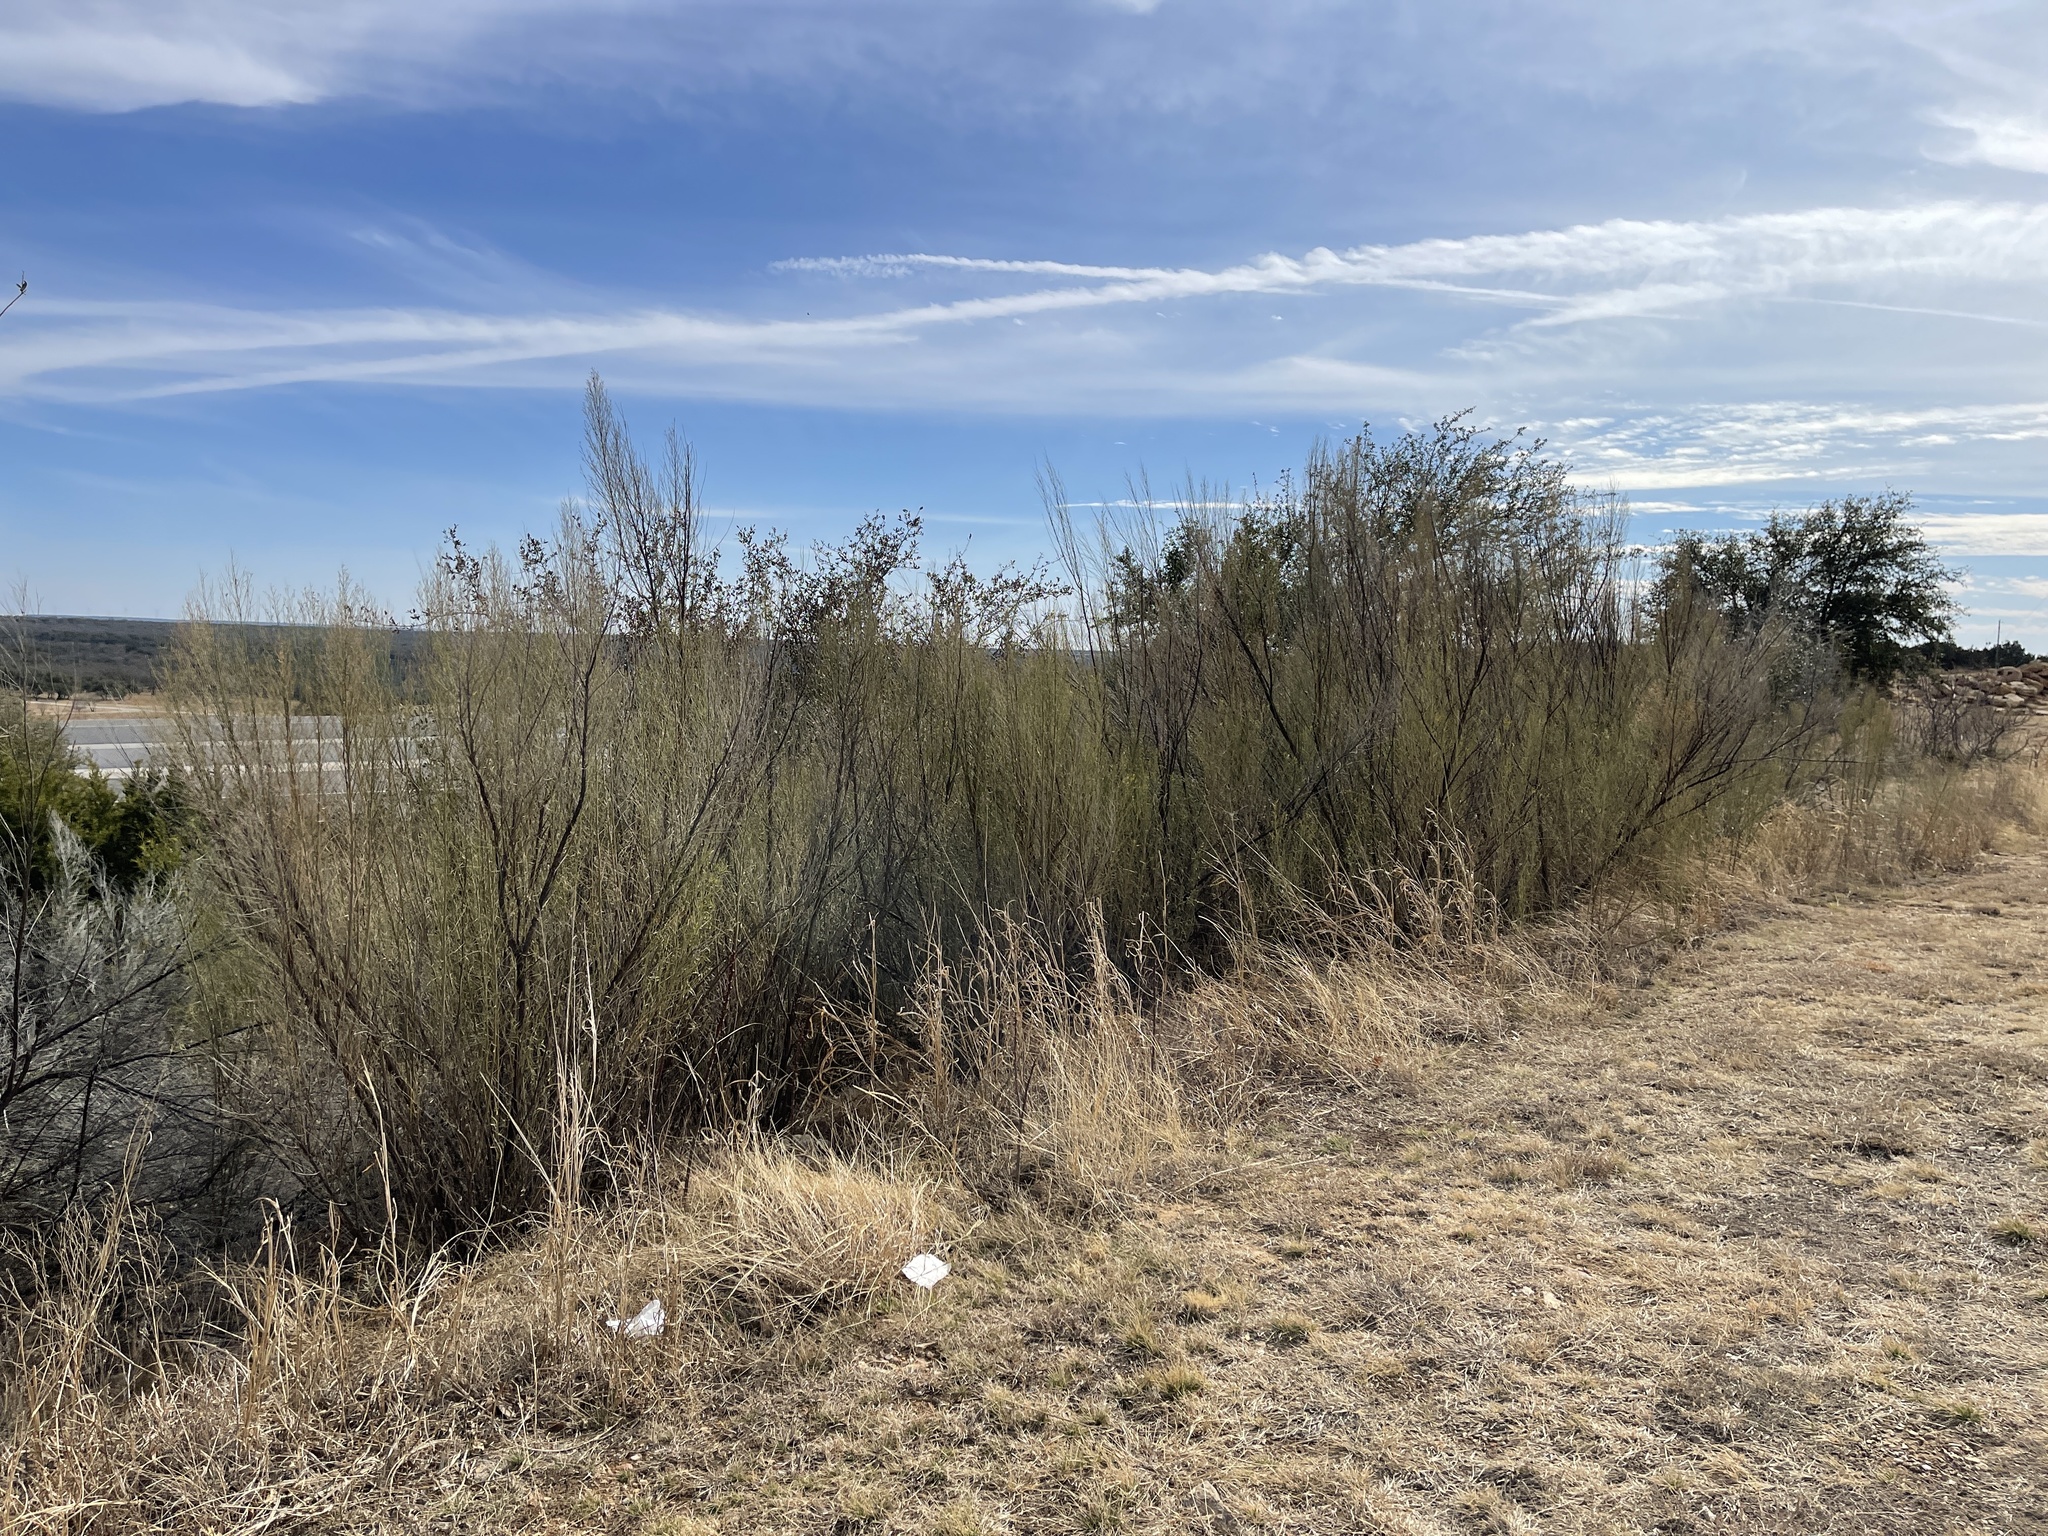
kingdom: Plantae
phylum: Tracheophyta
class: Magnoliopsida
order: Asterales
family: Asteraceae
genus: Baccharis
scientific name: Baccharis neglecta
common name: Roosevelt-weed
